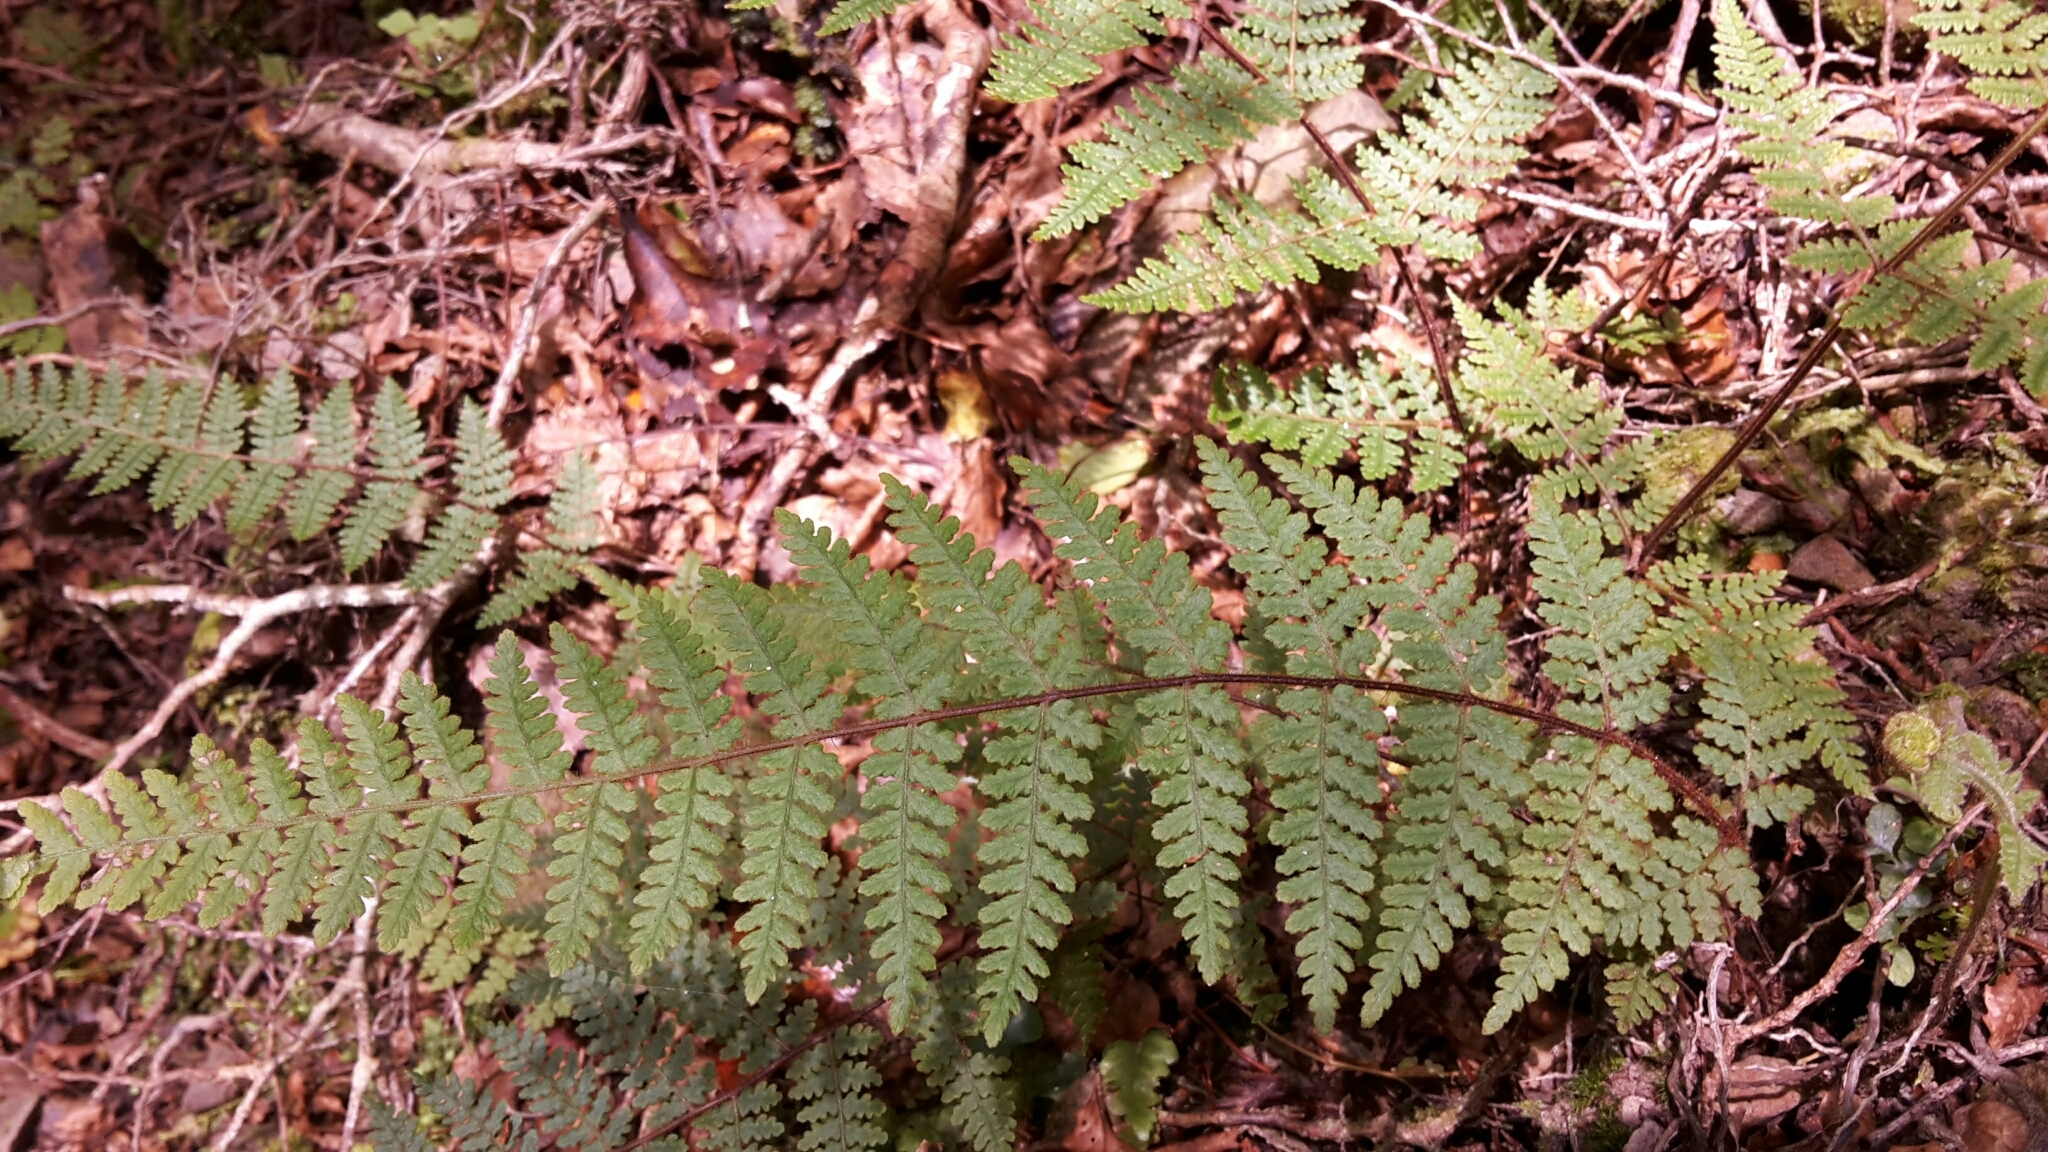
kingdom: Plantae
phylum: Tracheophyta
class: Polypodiopsida
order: Polypodiales
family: Dennstaedtiaceae
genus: Hypolepis
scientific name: Hypolepis rugosula
